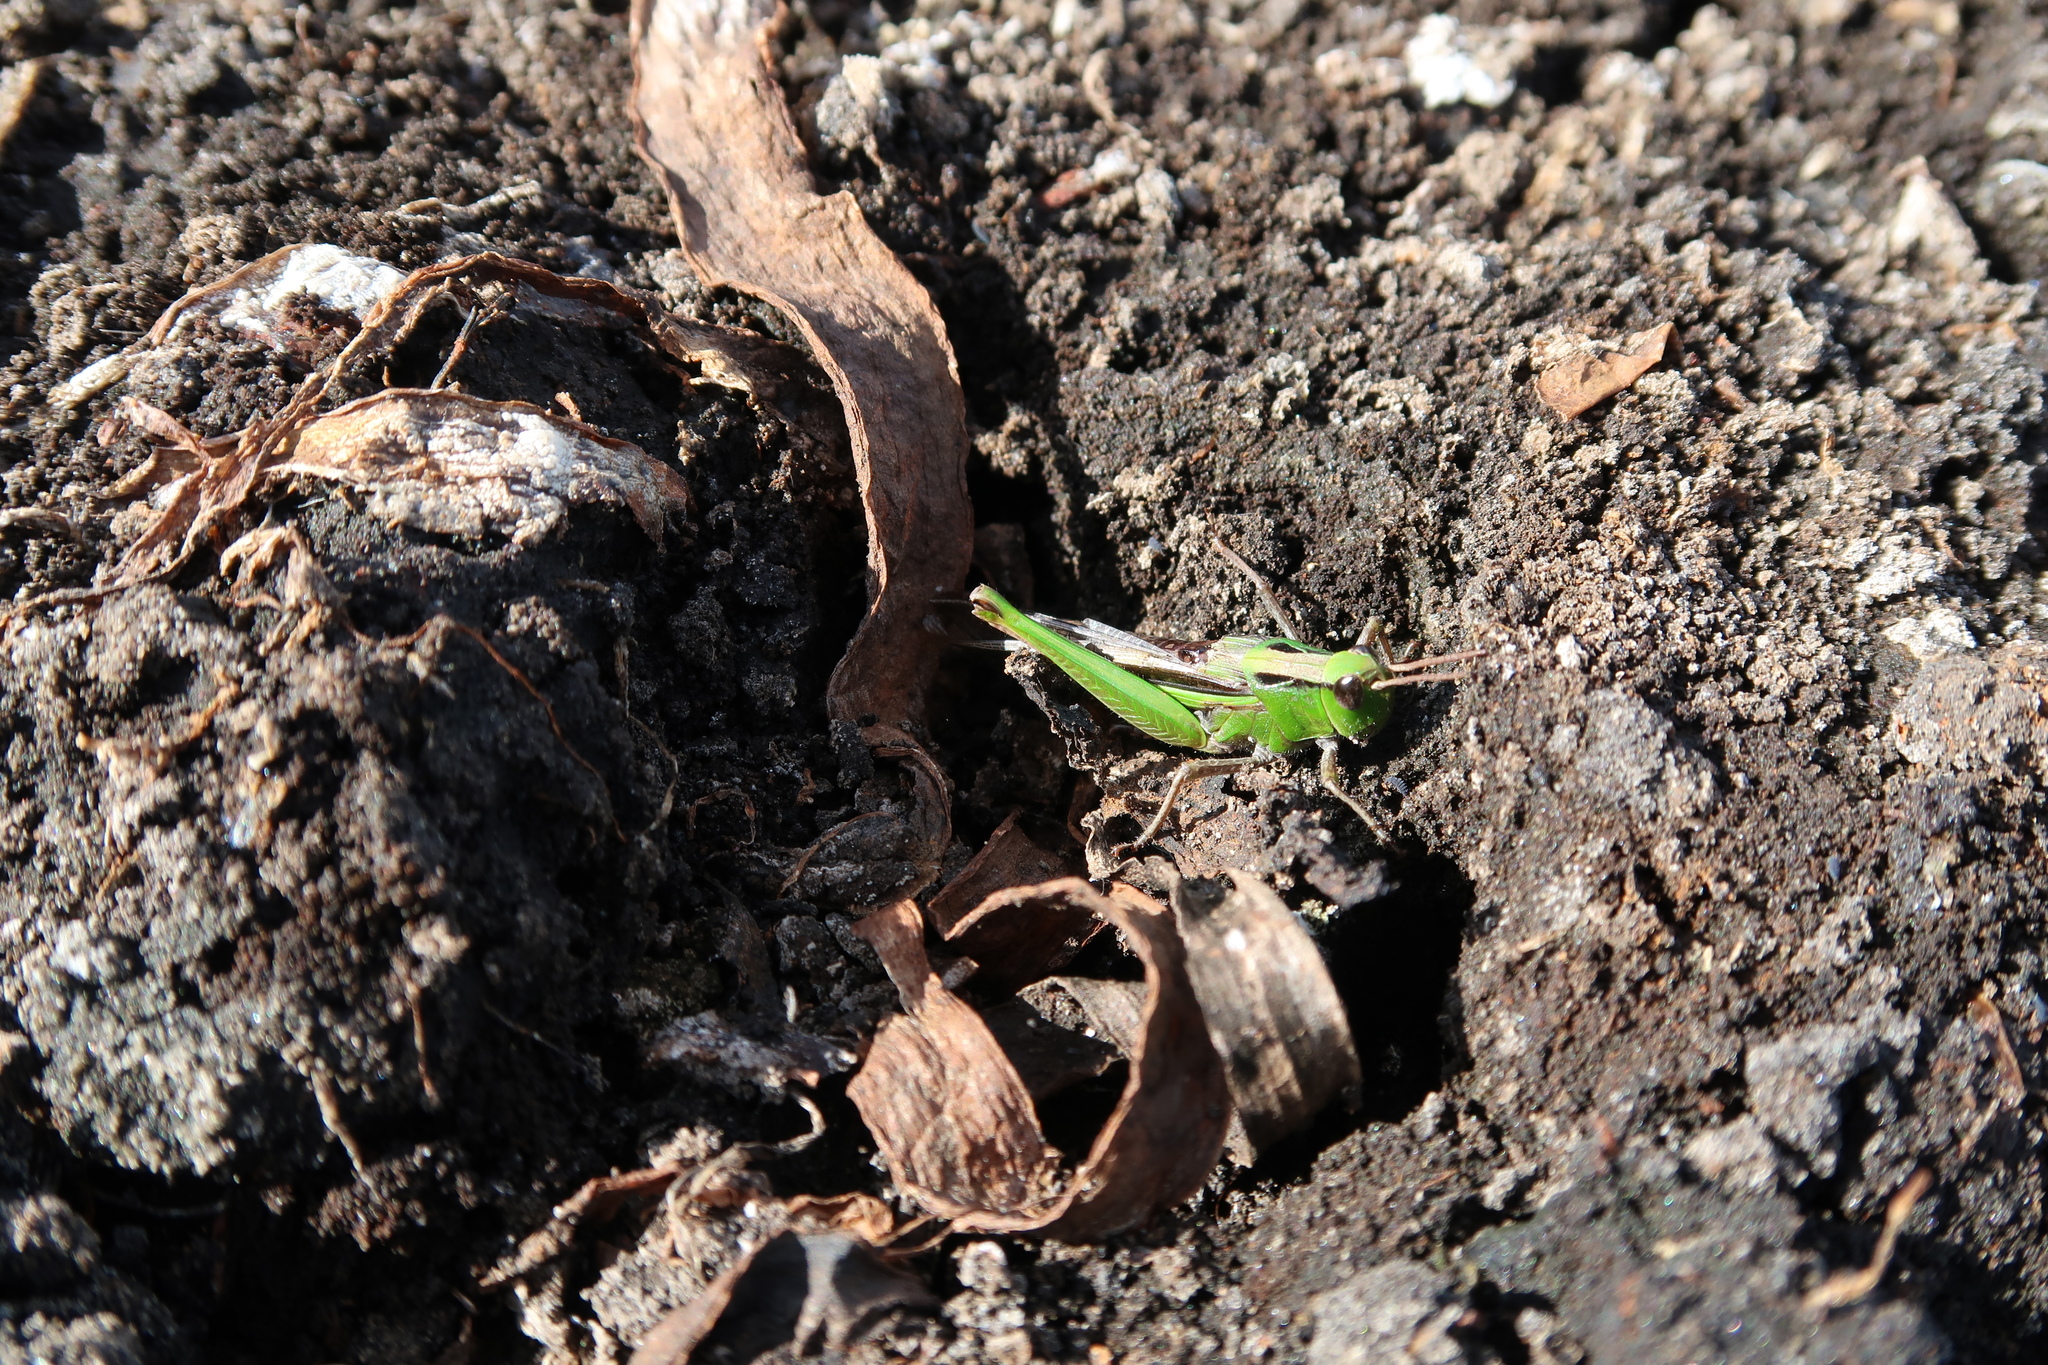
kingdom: Animalia
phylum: Arthropoda
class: Insecta
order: Orthoptera
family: Acrididae
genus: Schizobothrus
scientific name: Schizobothrus flavovittatus
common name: Disappearing grasshopper
